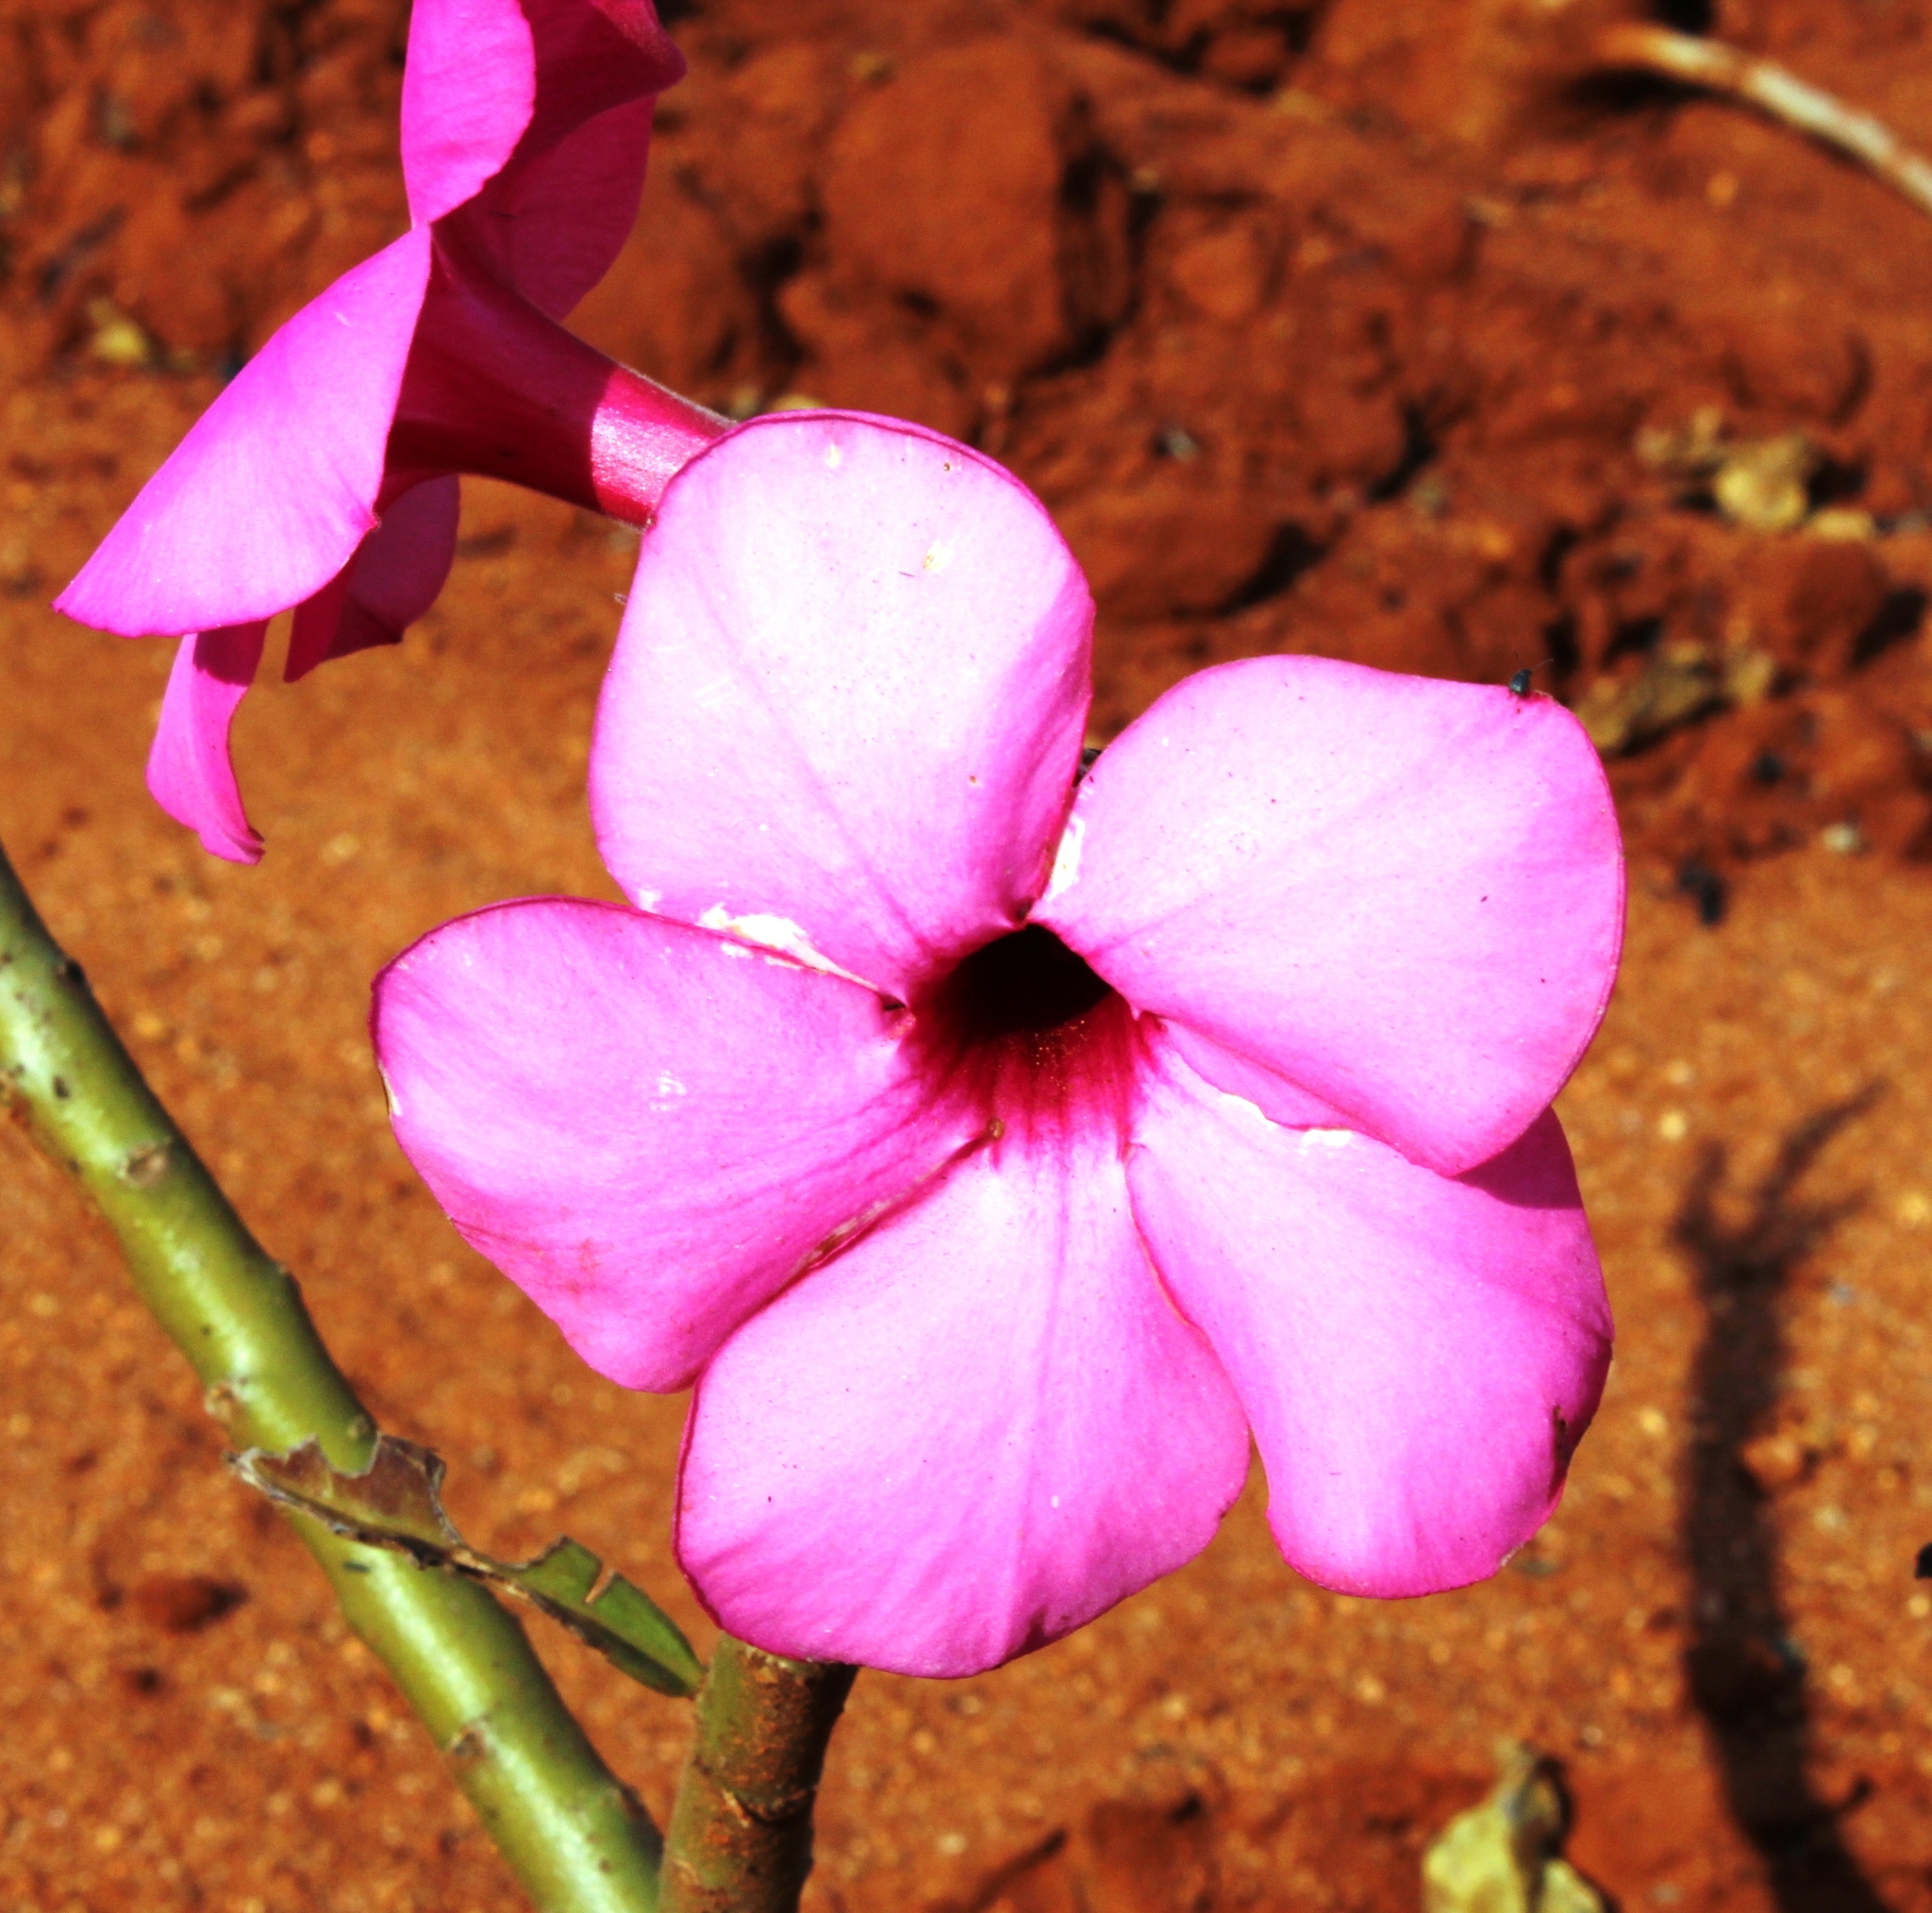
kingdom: Plantae
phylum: Tracheophyta
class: Magnoliopsida
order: Gentianales
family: Apocynaceae
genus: Adenium
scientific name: Adenium obesum
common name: Desert-rose
